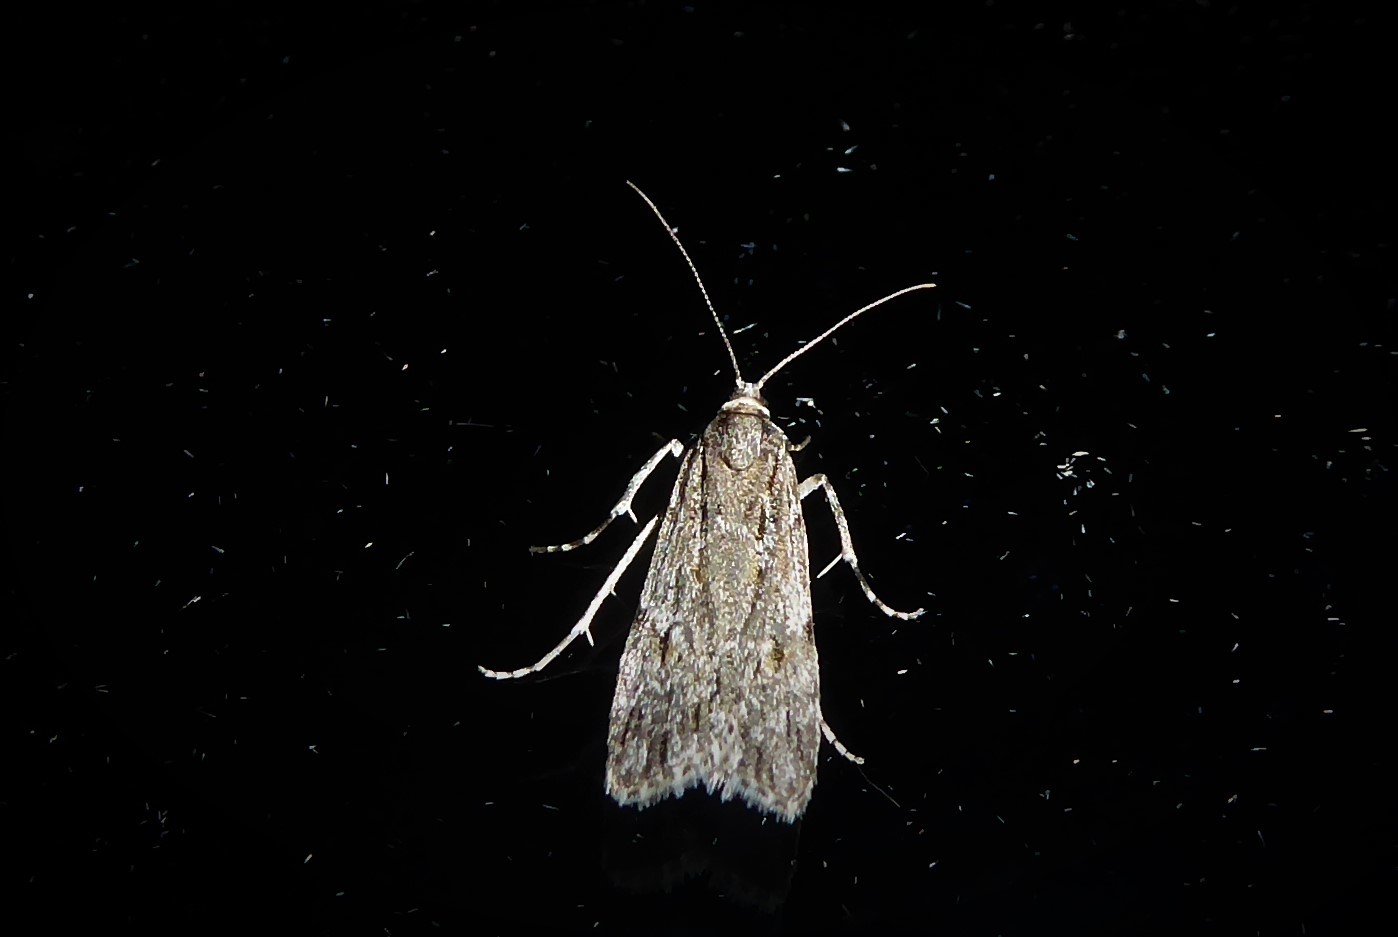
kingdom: Animalia
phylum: Arthropoda
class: Insecta
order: Lepidoptera
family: Crambidae
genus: Scoparia
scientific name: Scoparia chalicodes
